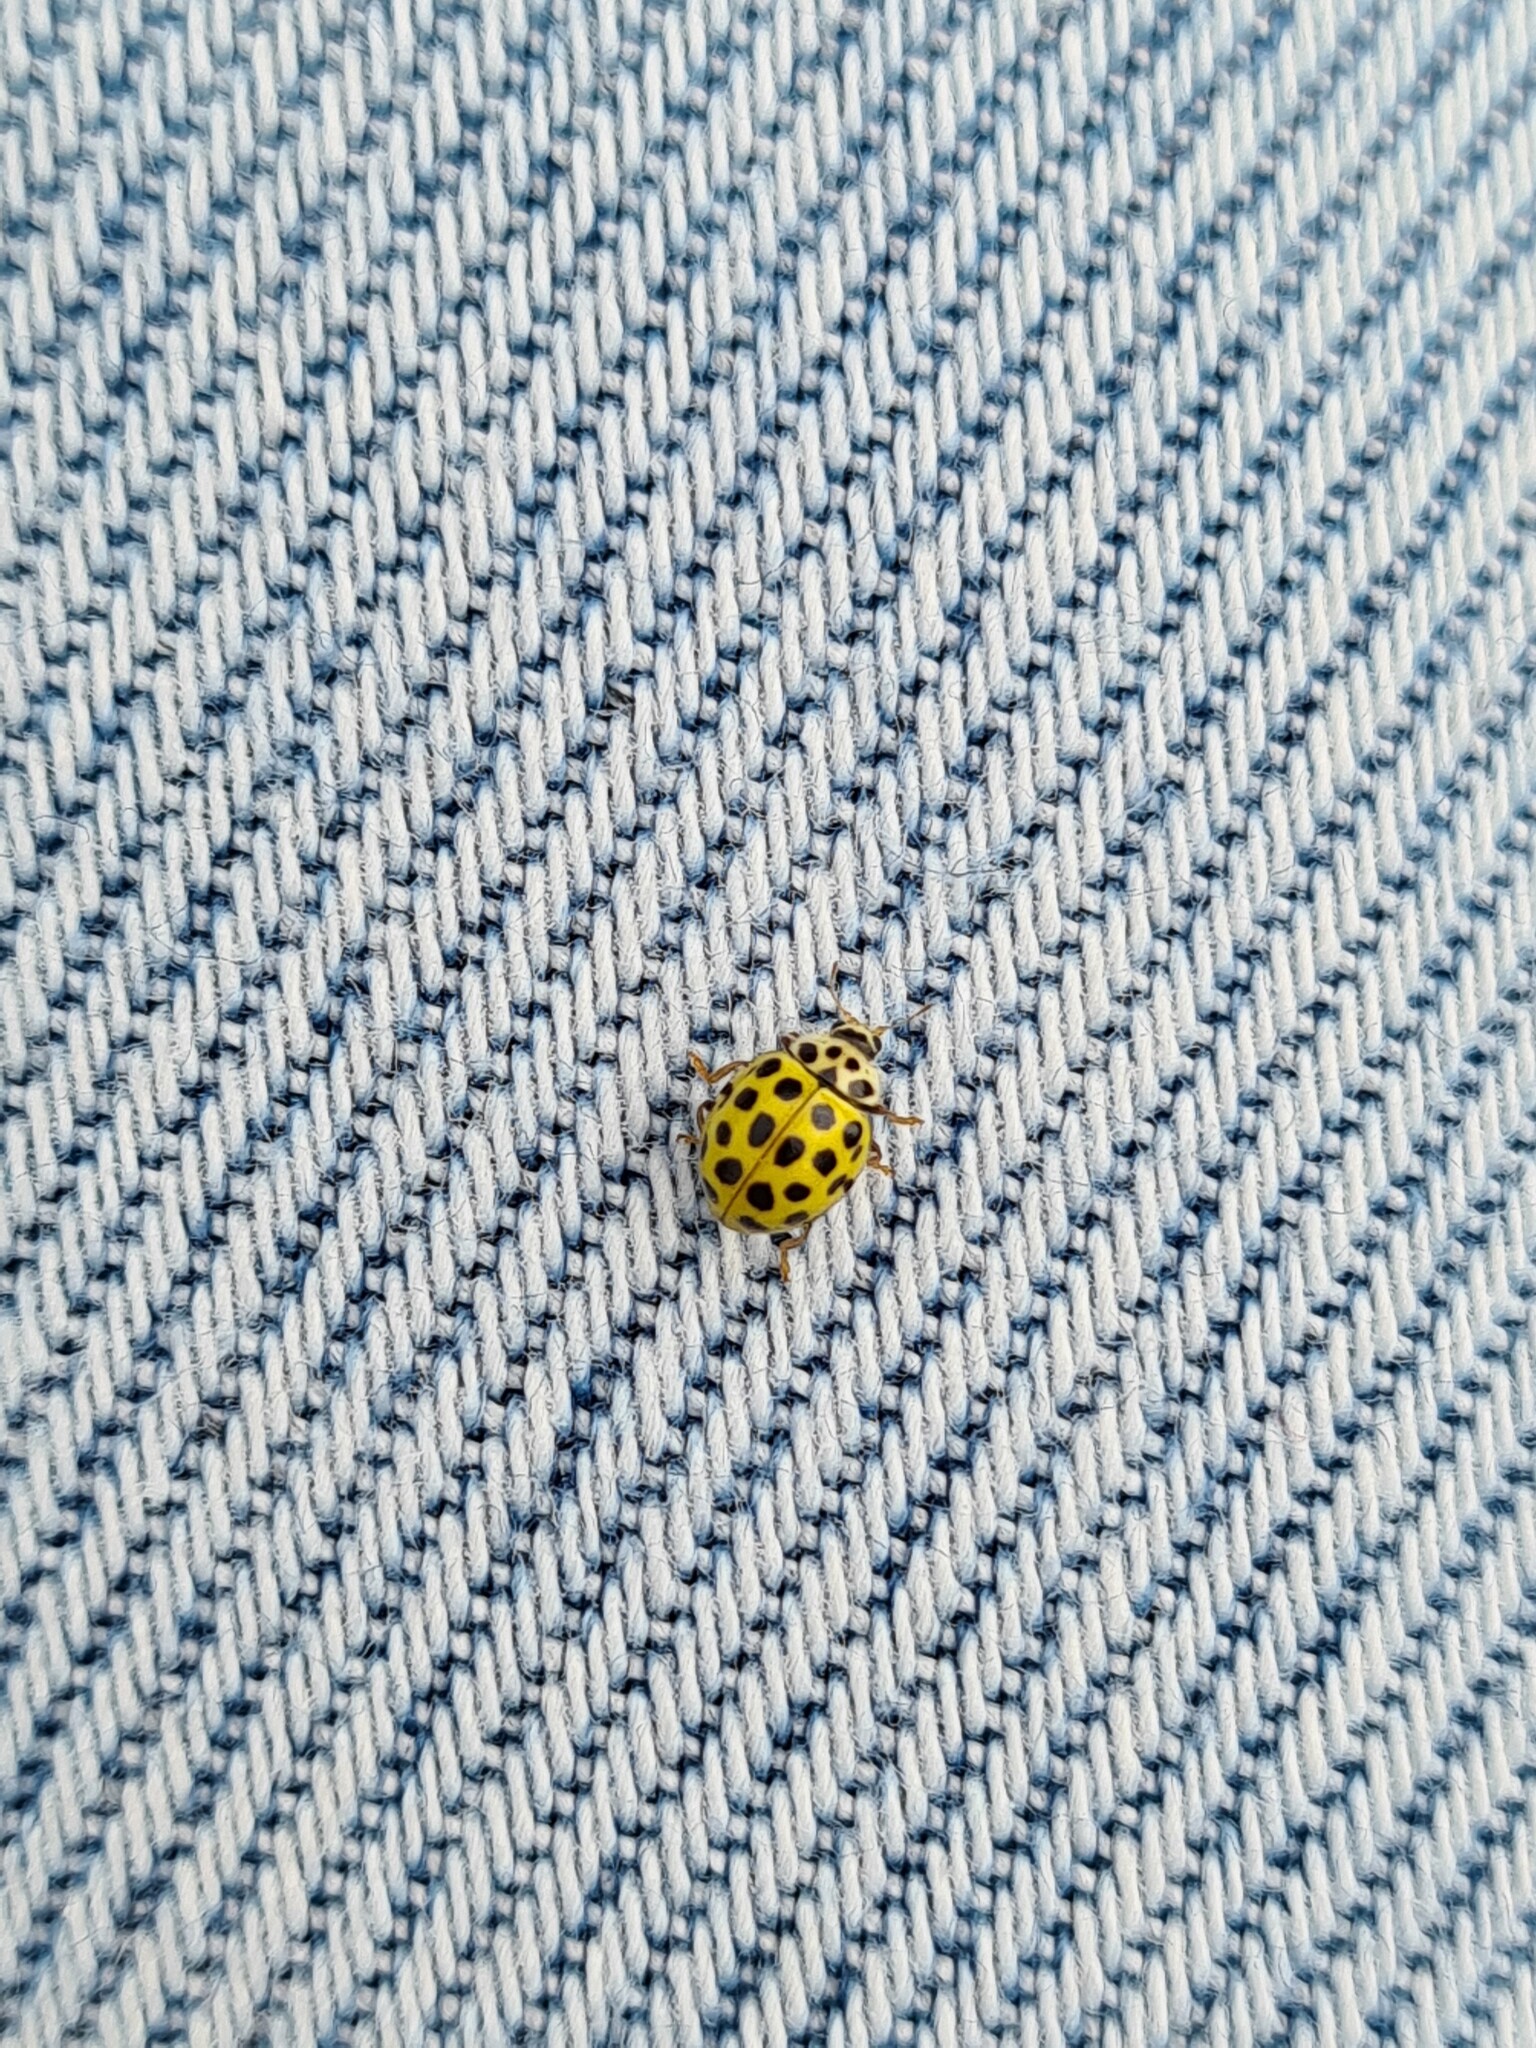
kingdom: Animalia
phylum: Arthropoda
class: Insecta
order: Coleoptera
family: Coccinellidae
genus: Psyllobora
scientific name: Psyllobora vigintiduopunctata
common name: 22-spot ladybird
